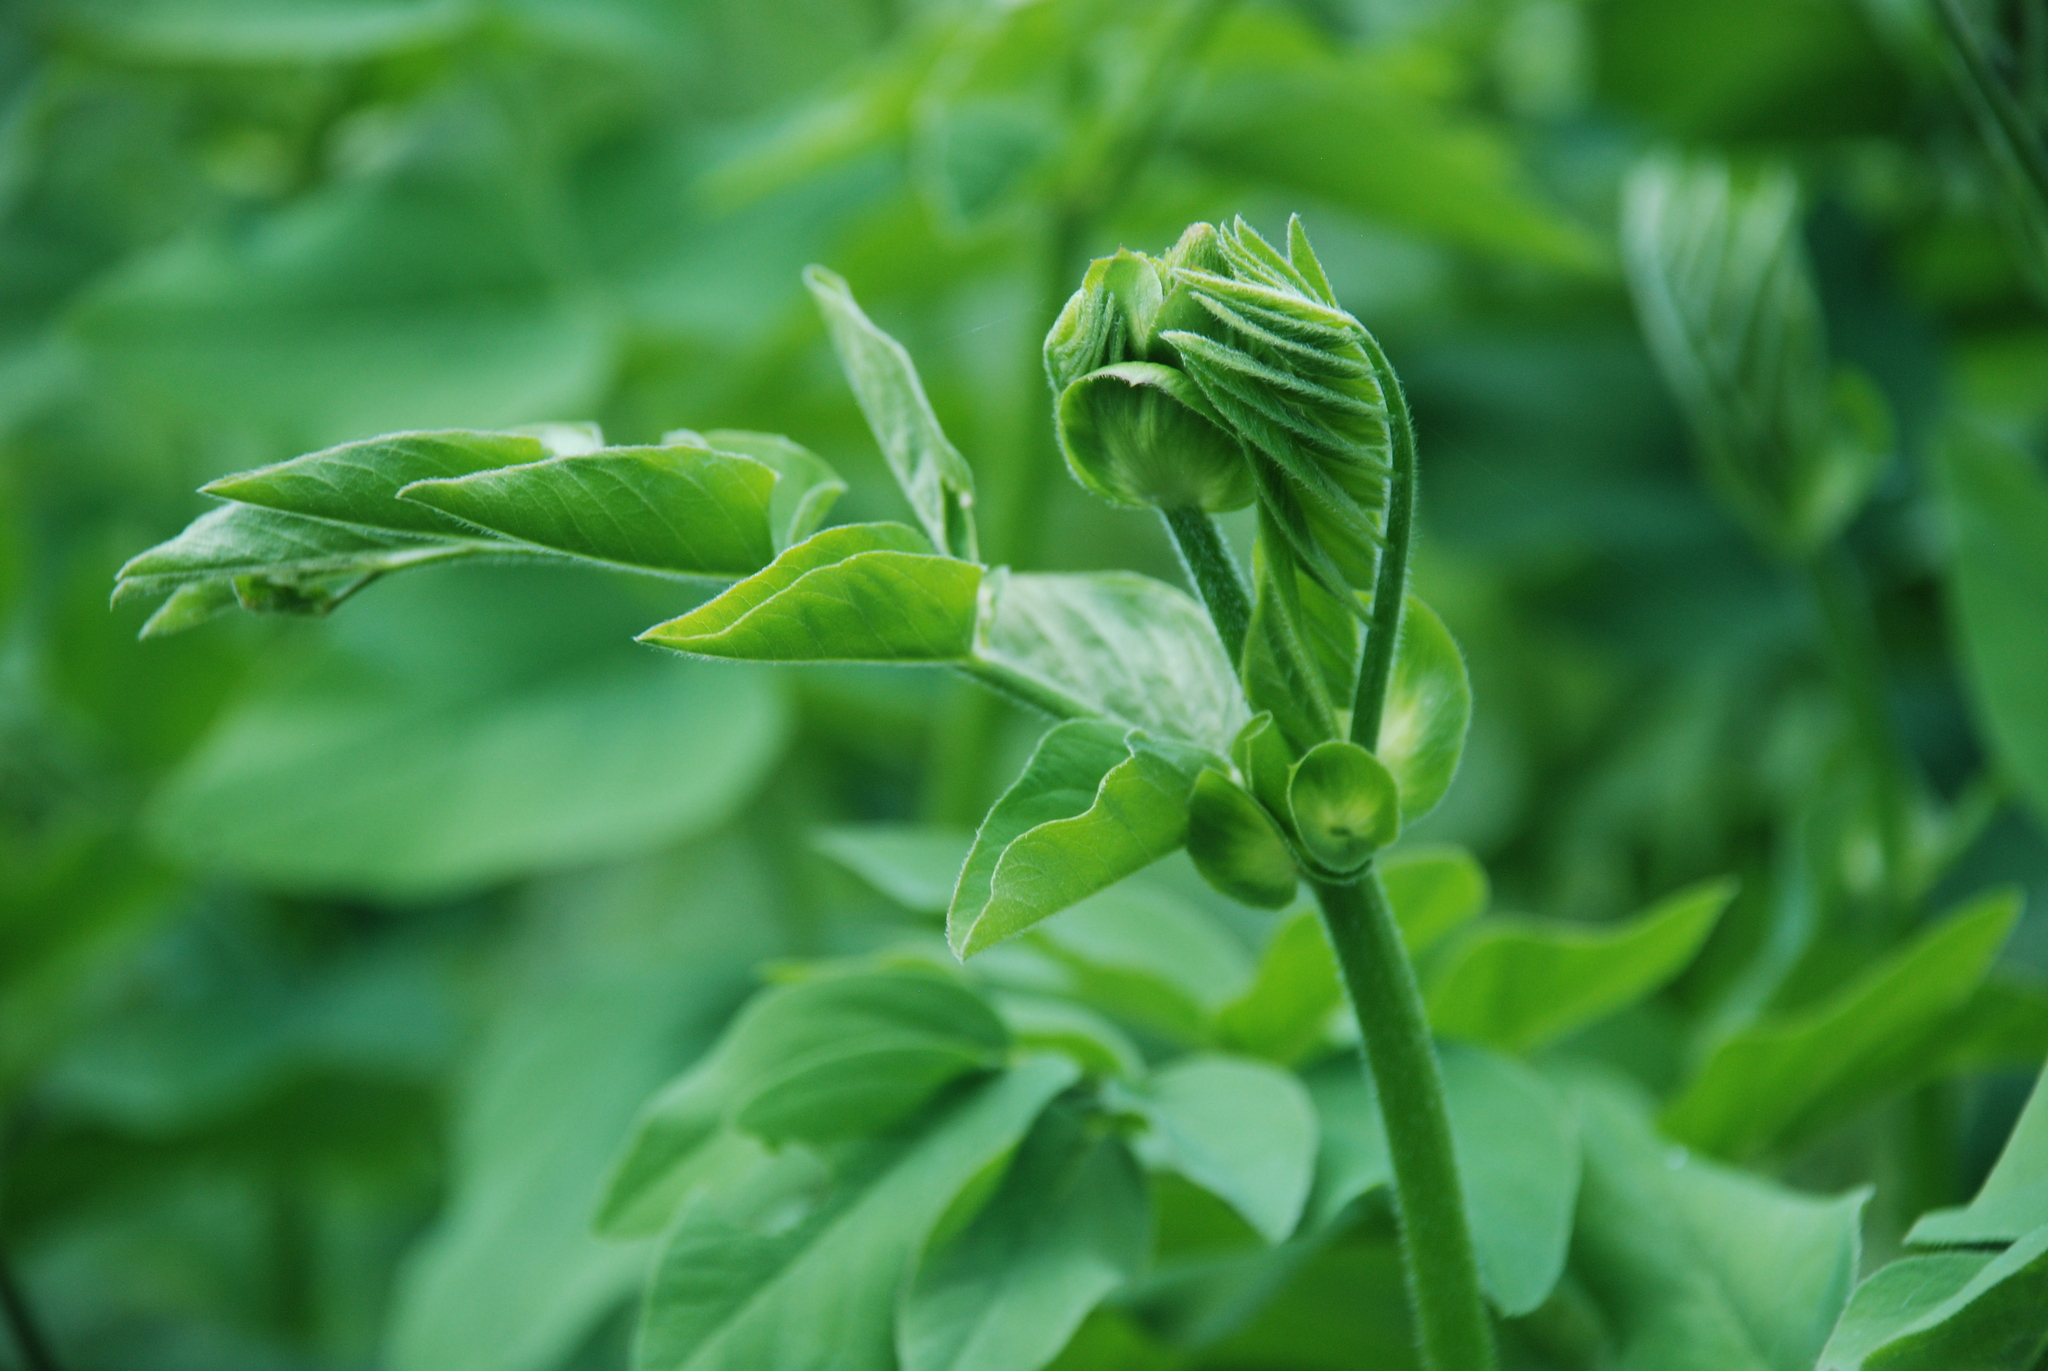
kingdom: Plantae
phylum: Tracheophyta
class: Magnoliopsida
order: Fabales
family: Fabaceae
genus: Galega
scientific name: Galega orientalis
